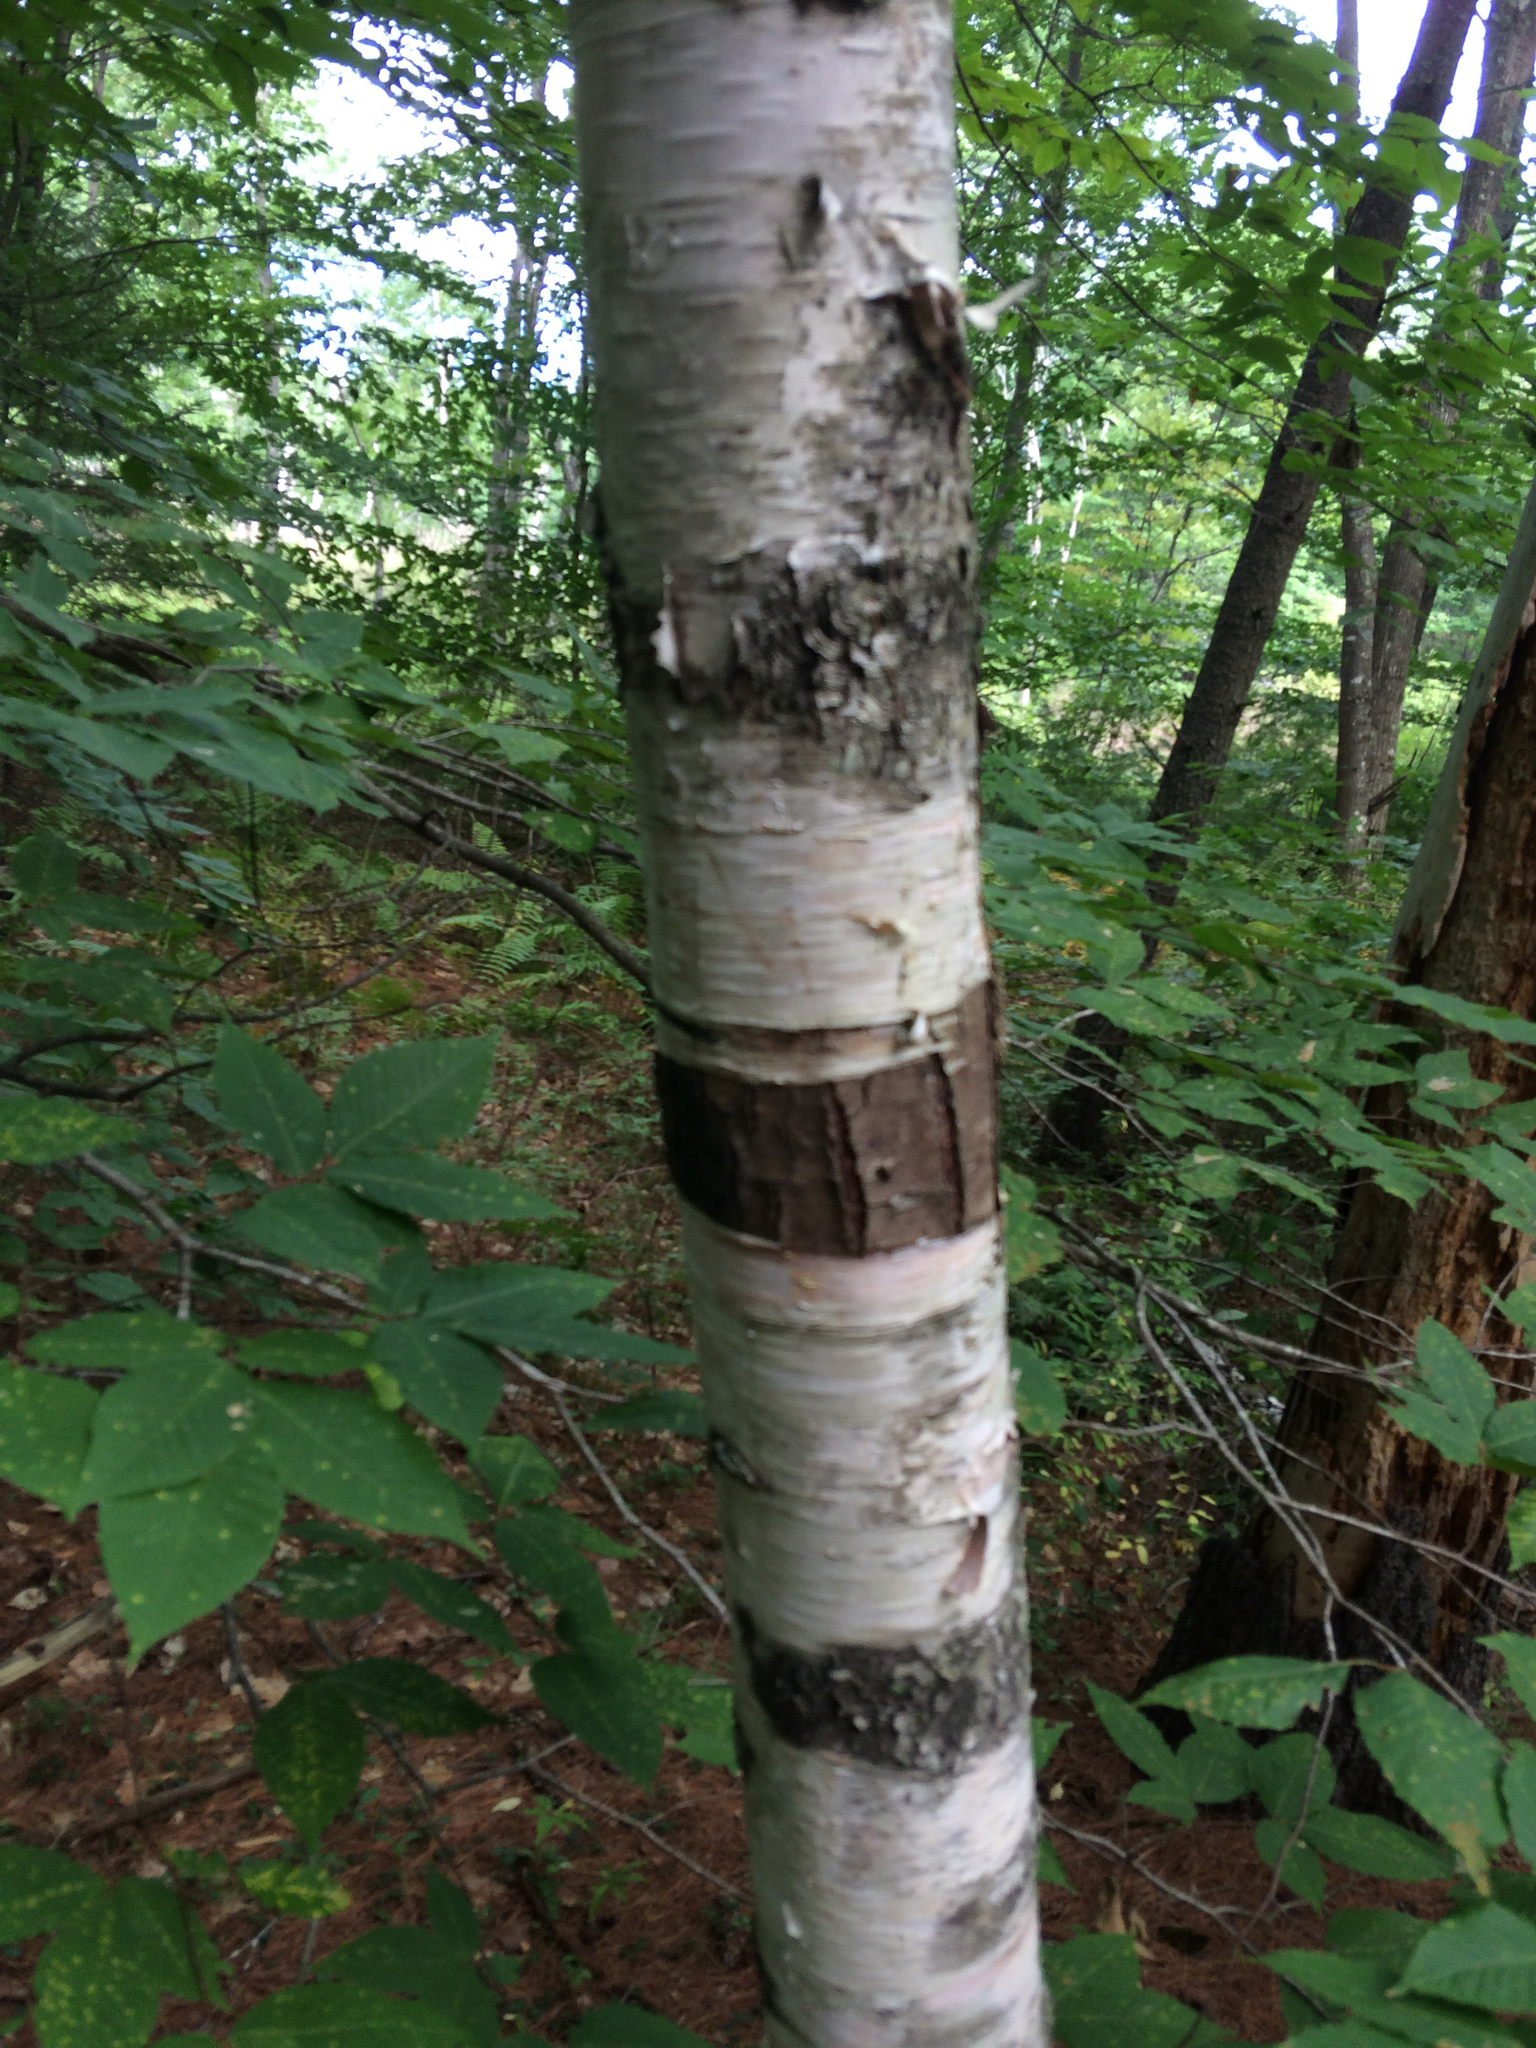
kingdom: Plantae
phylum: Tracheophyta
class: Magnoliopsida
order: Fagales
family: Betulaceae
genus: Betula
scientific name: Betula papyrifera
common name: Paper birch
